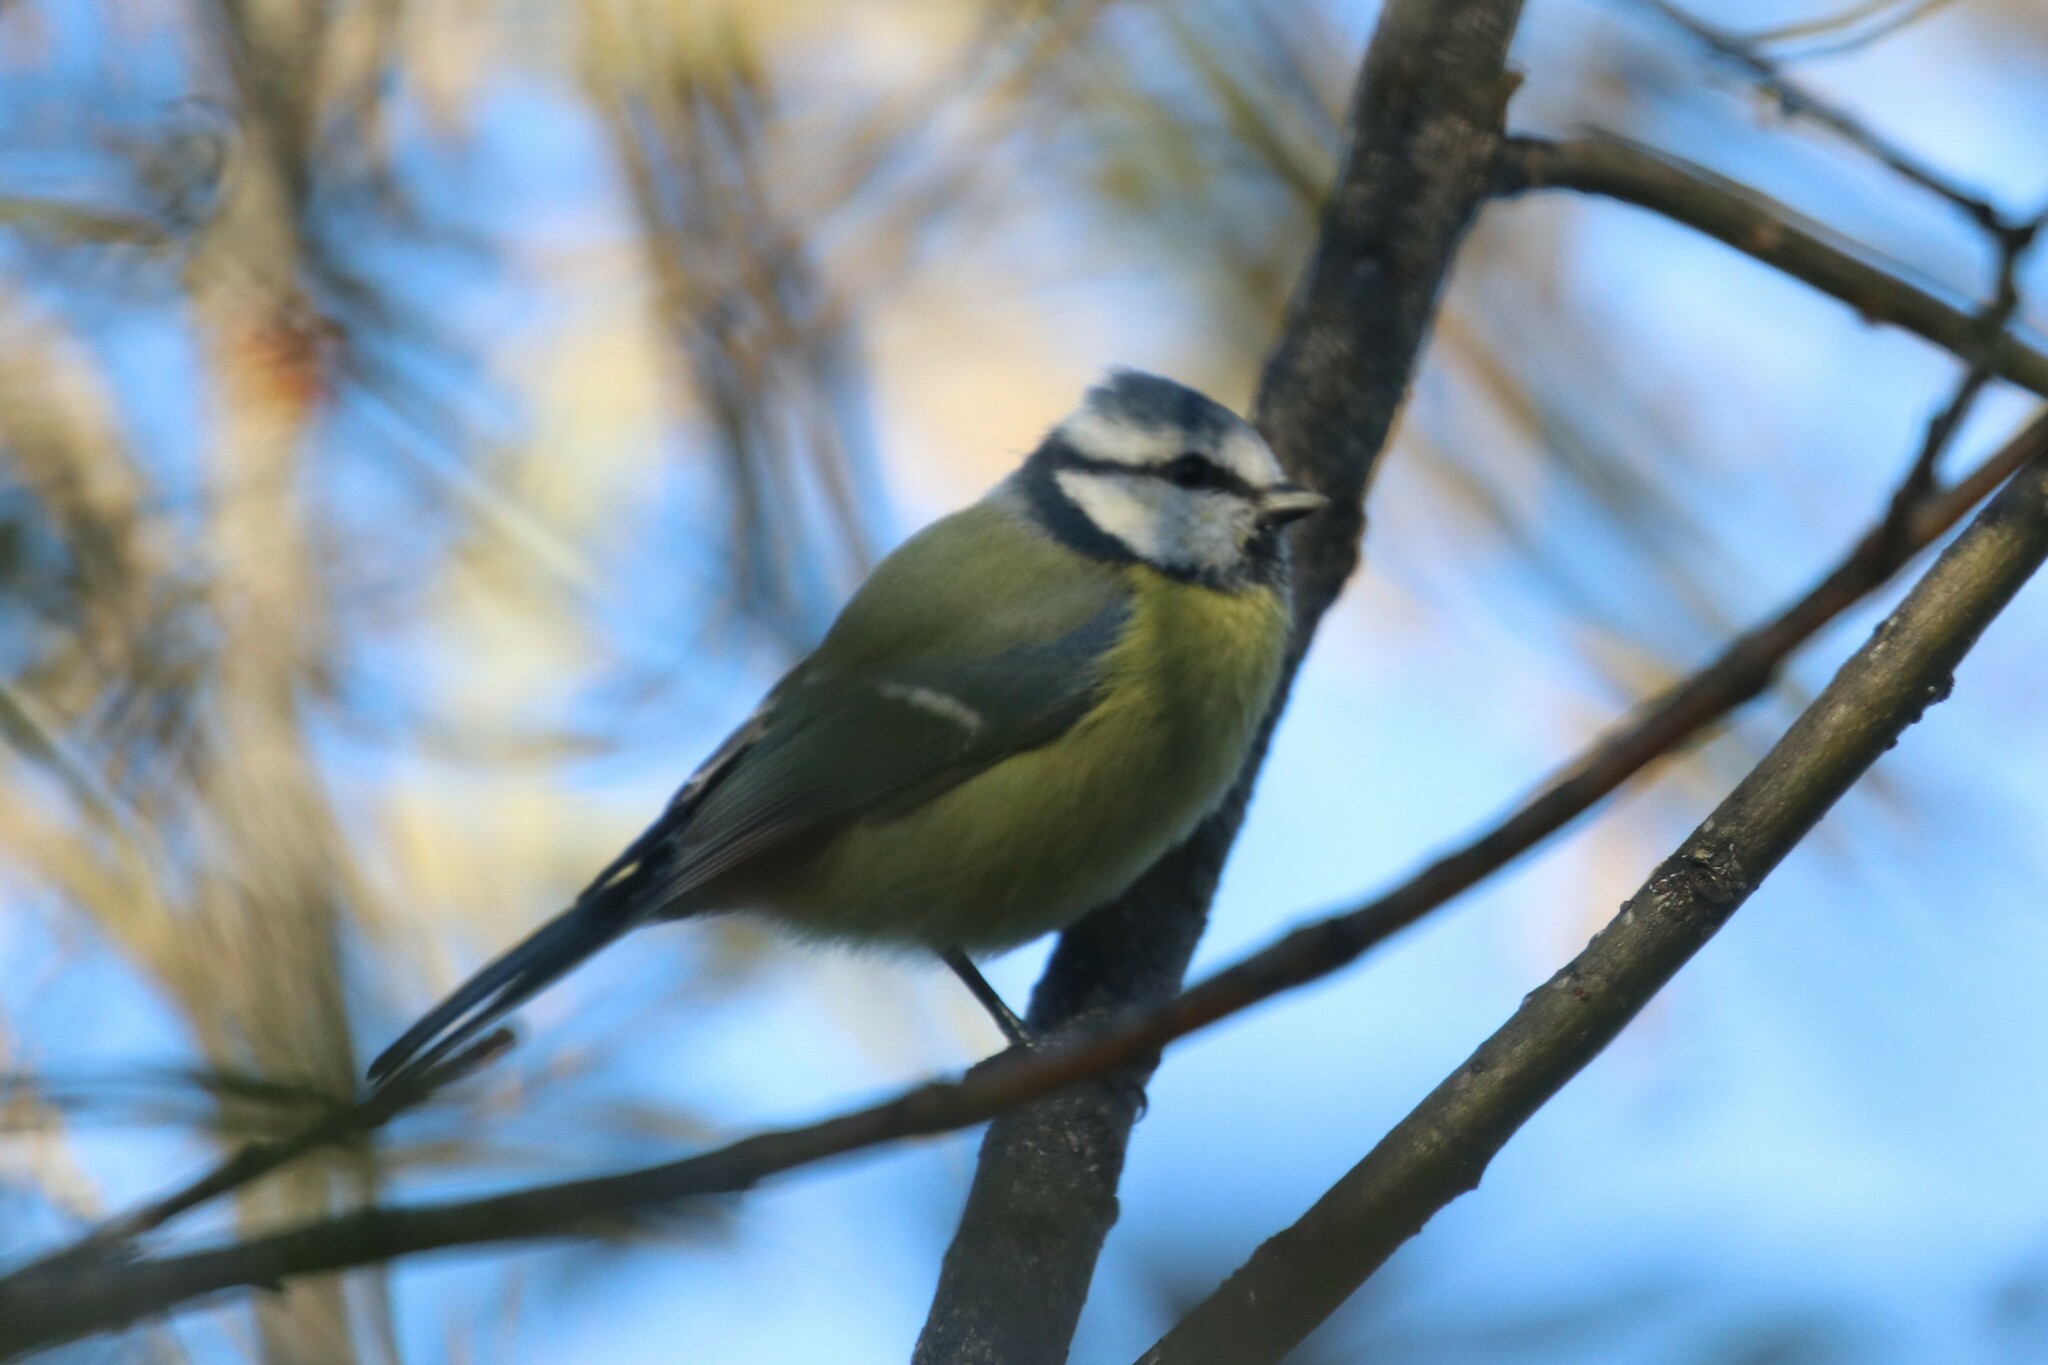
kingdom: Animalia
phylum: Chordata
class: Aves
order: Passeriformes
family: Paridae
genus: Cyanistes
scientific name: Cyanistes caeruleus
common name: Eurasian blue tit
